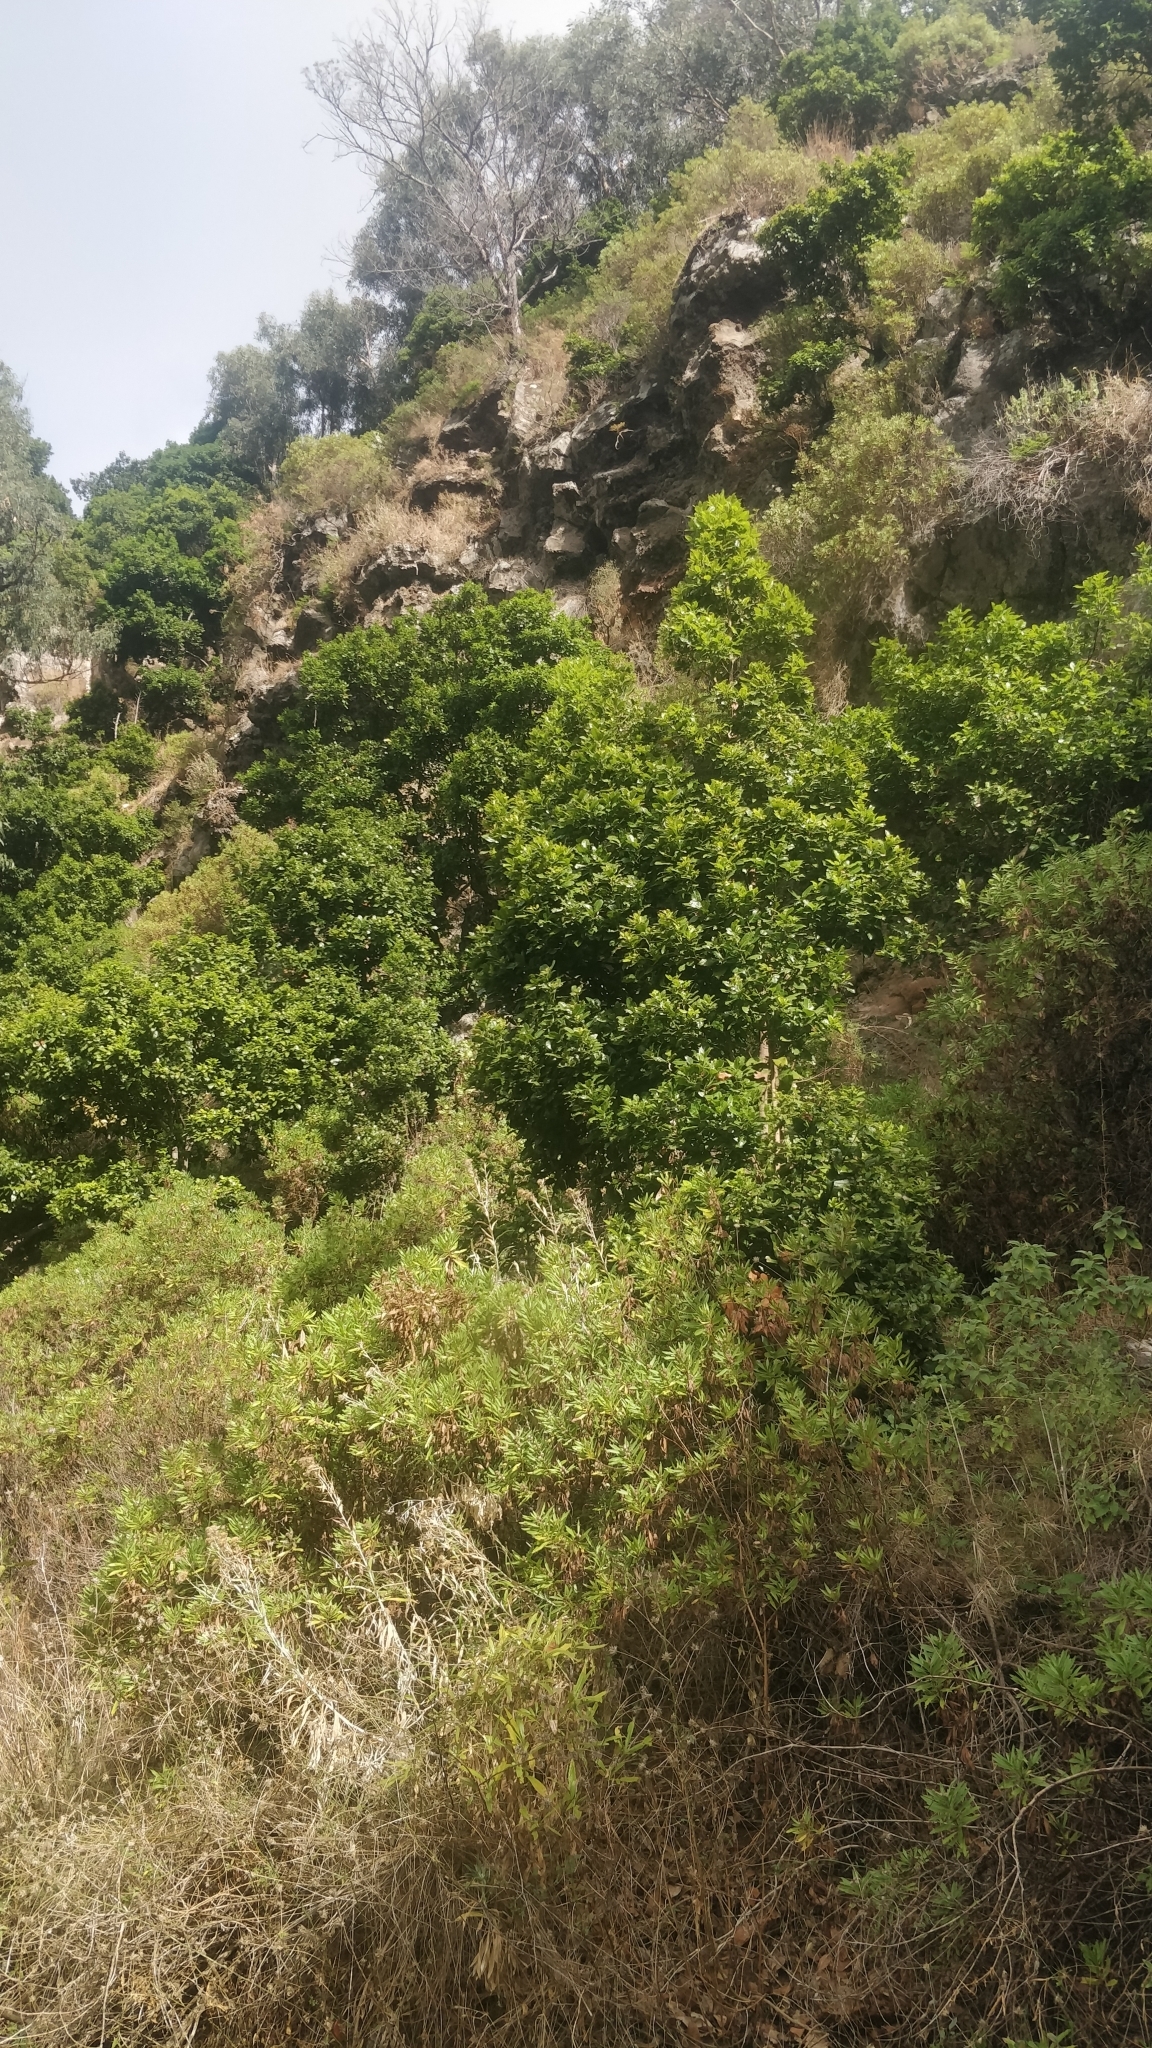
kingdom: Plantae
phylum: Tracheophyta
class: Magnoliopsida
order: Laurales
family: Lauraceae
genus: Apollonias
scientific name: Apollonias barbujana
